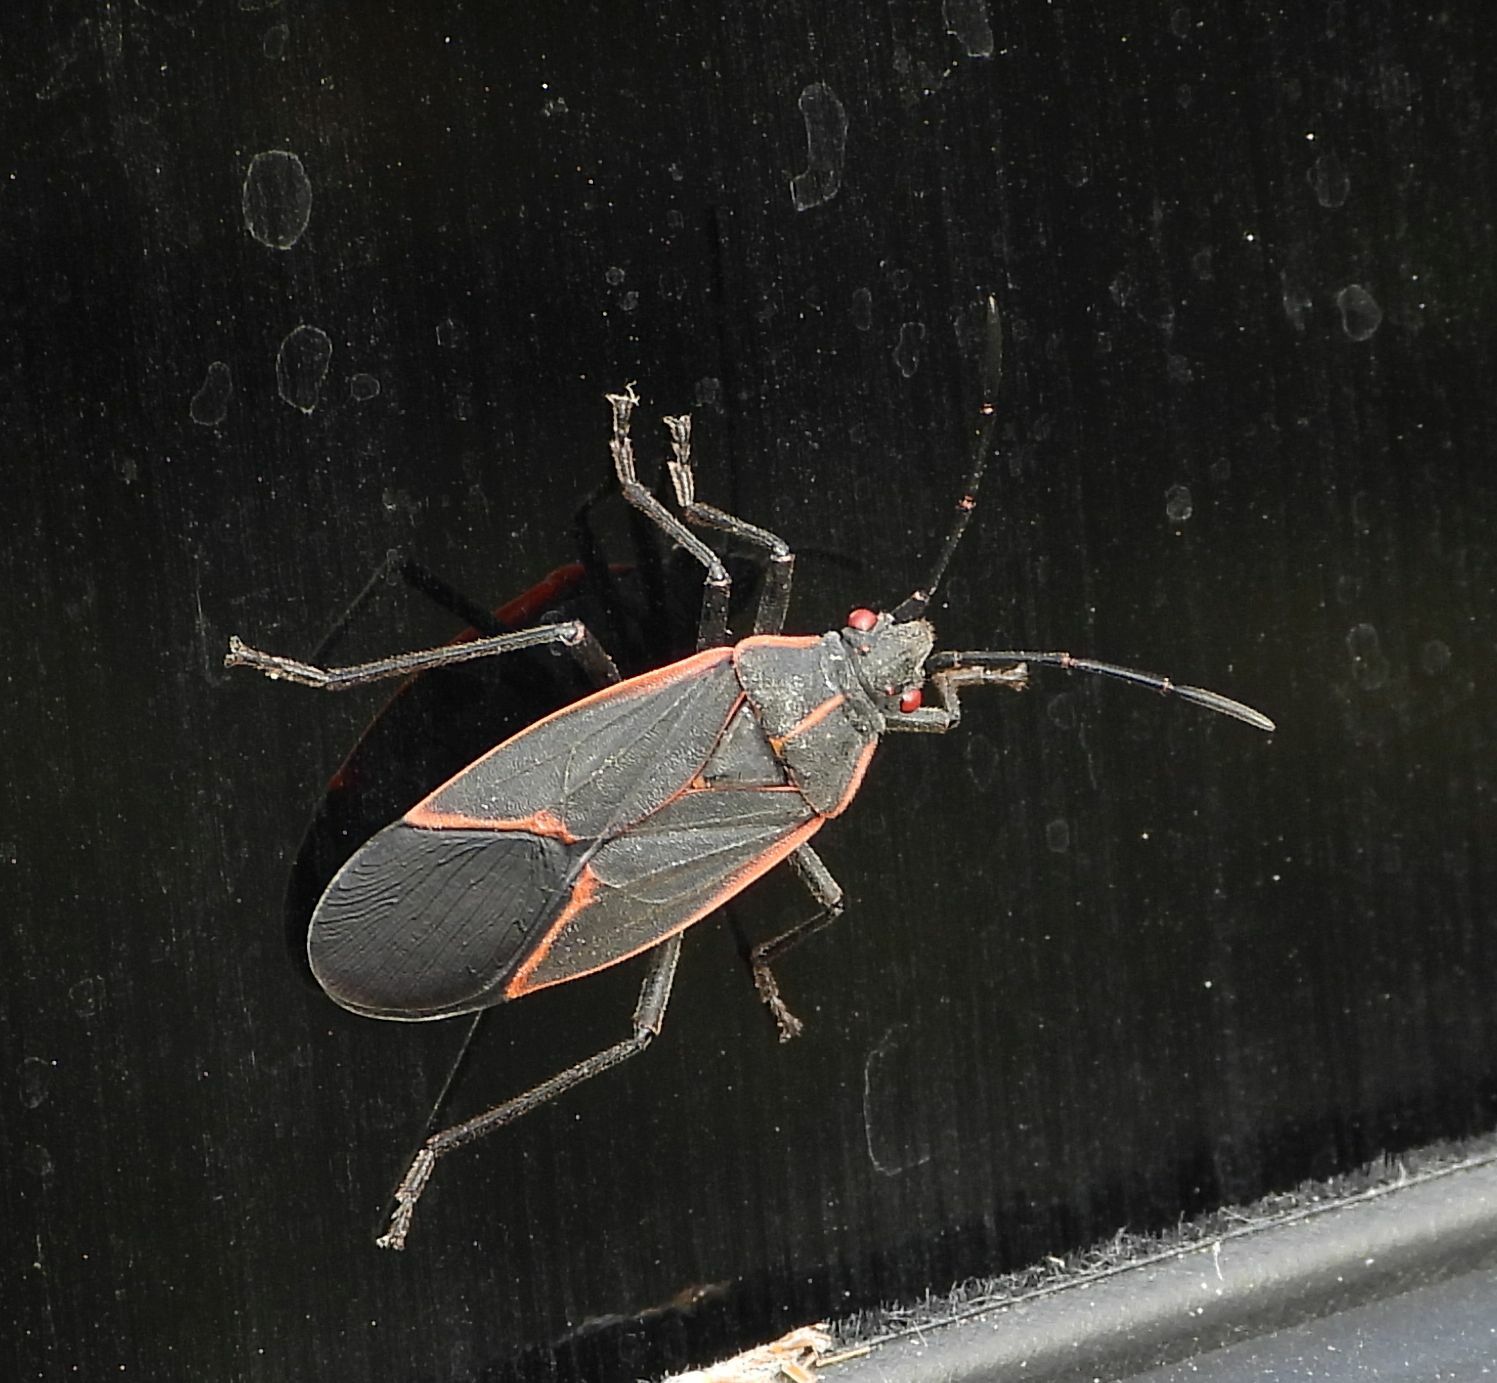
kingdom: Animalia
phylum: Arthropoda
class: Insecta
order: Hemiptera
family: Rhopalidae
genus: Boisea
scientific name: Boisea trivittata
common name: Boxelder bug
